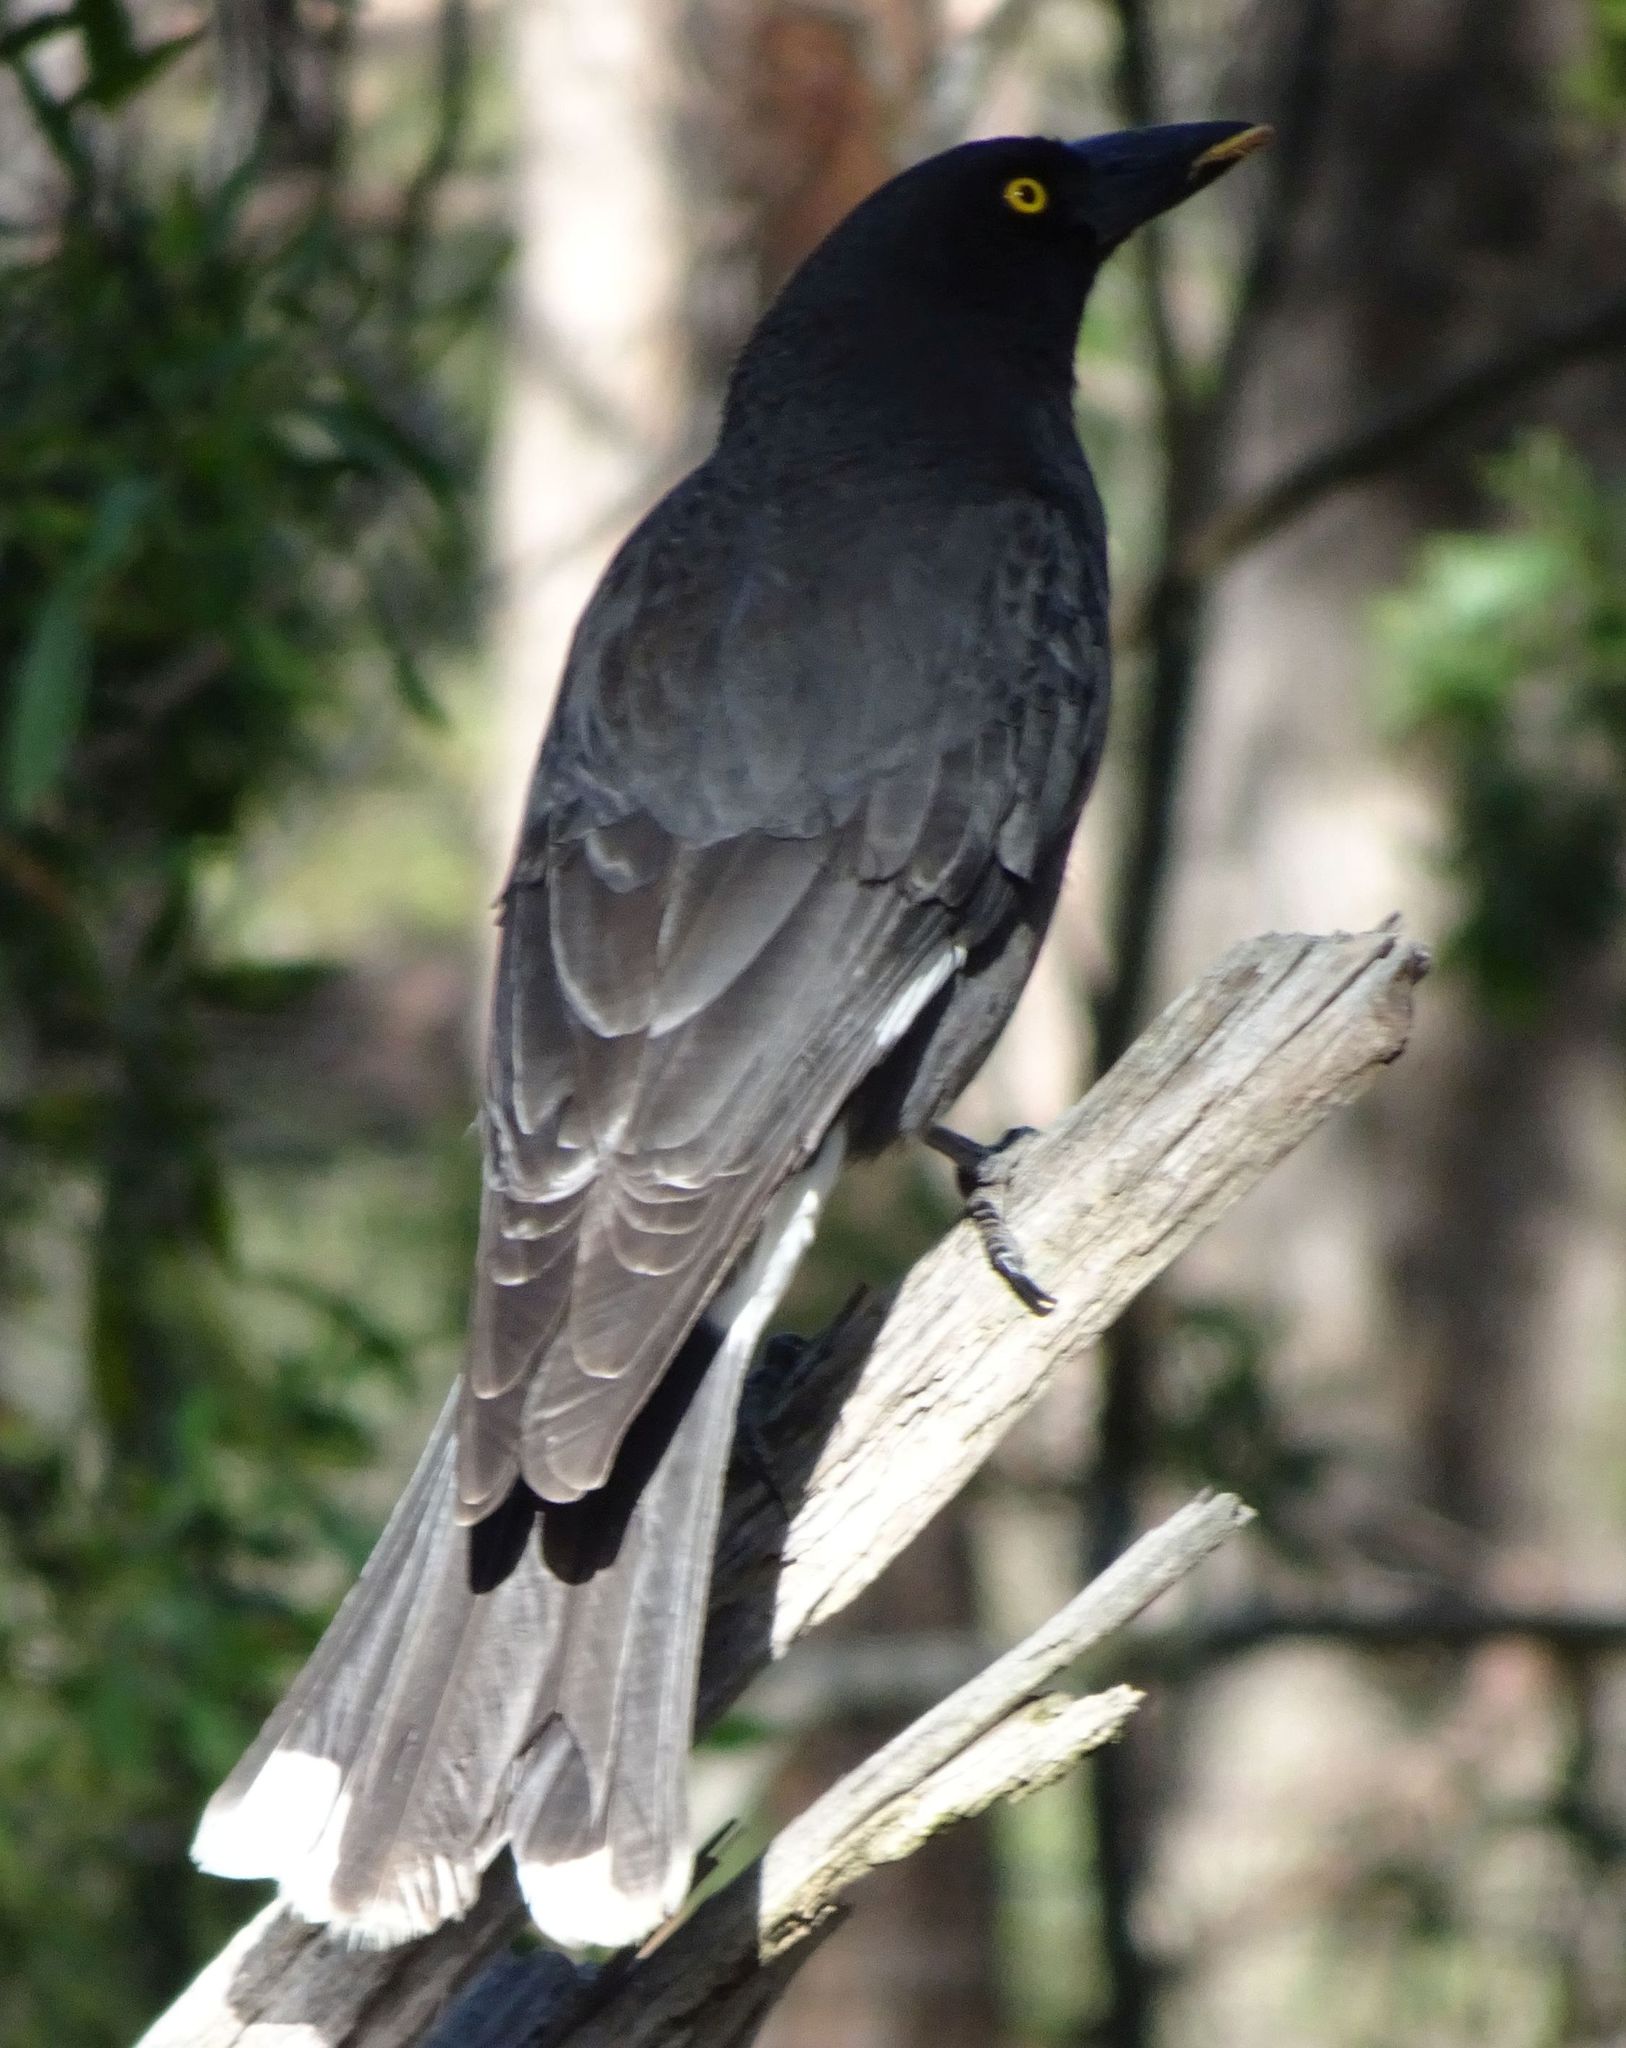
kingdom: Animalia
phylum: Chordata
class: Aves
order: Passeriformes
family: Cracticidae
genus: Strepera
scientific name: Strepera graculina
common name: Pied currawong
